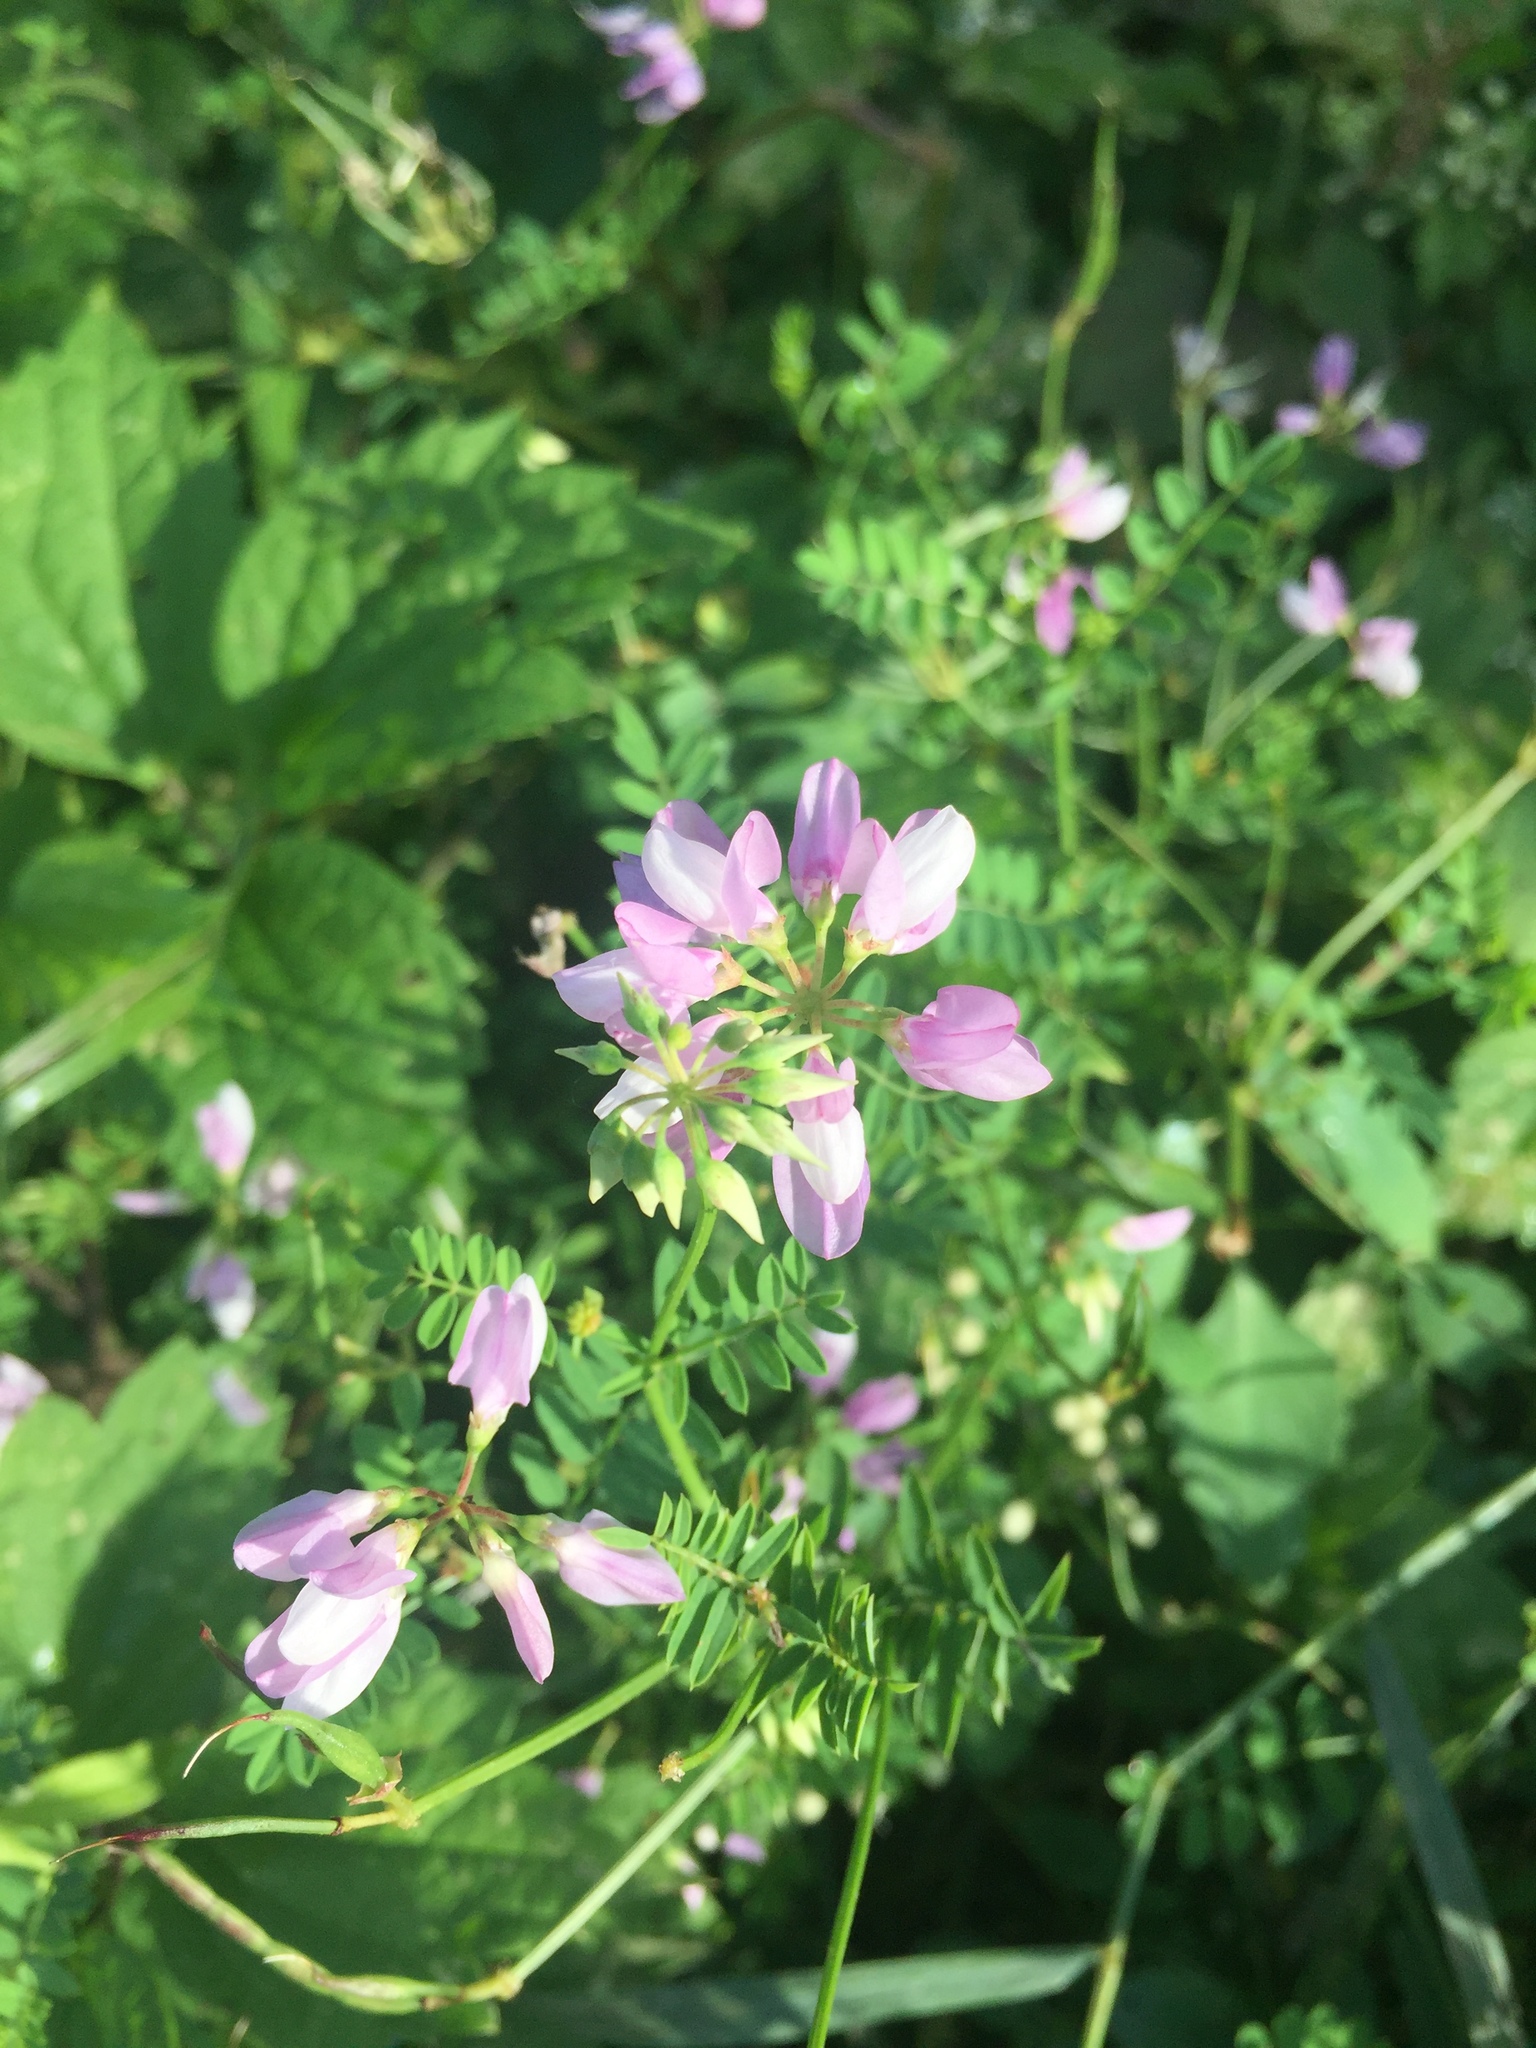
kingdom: Plantae
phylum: Tracheophyta
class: Magnoliopsida
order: Fabales
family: Fabaceae
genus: Coronilla
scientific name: Coronilla varia
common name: Crownvetch
